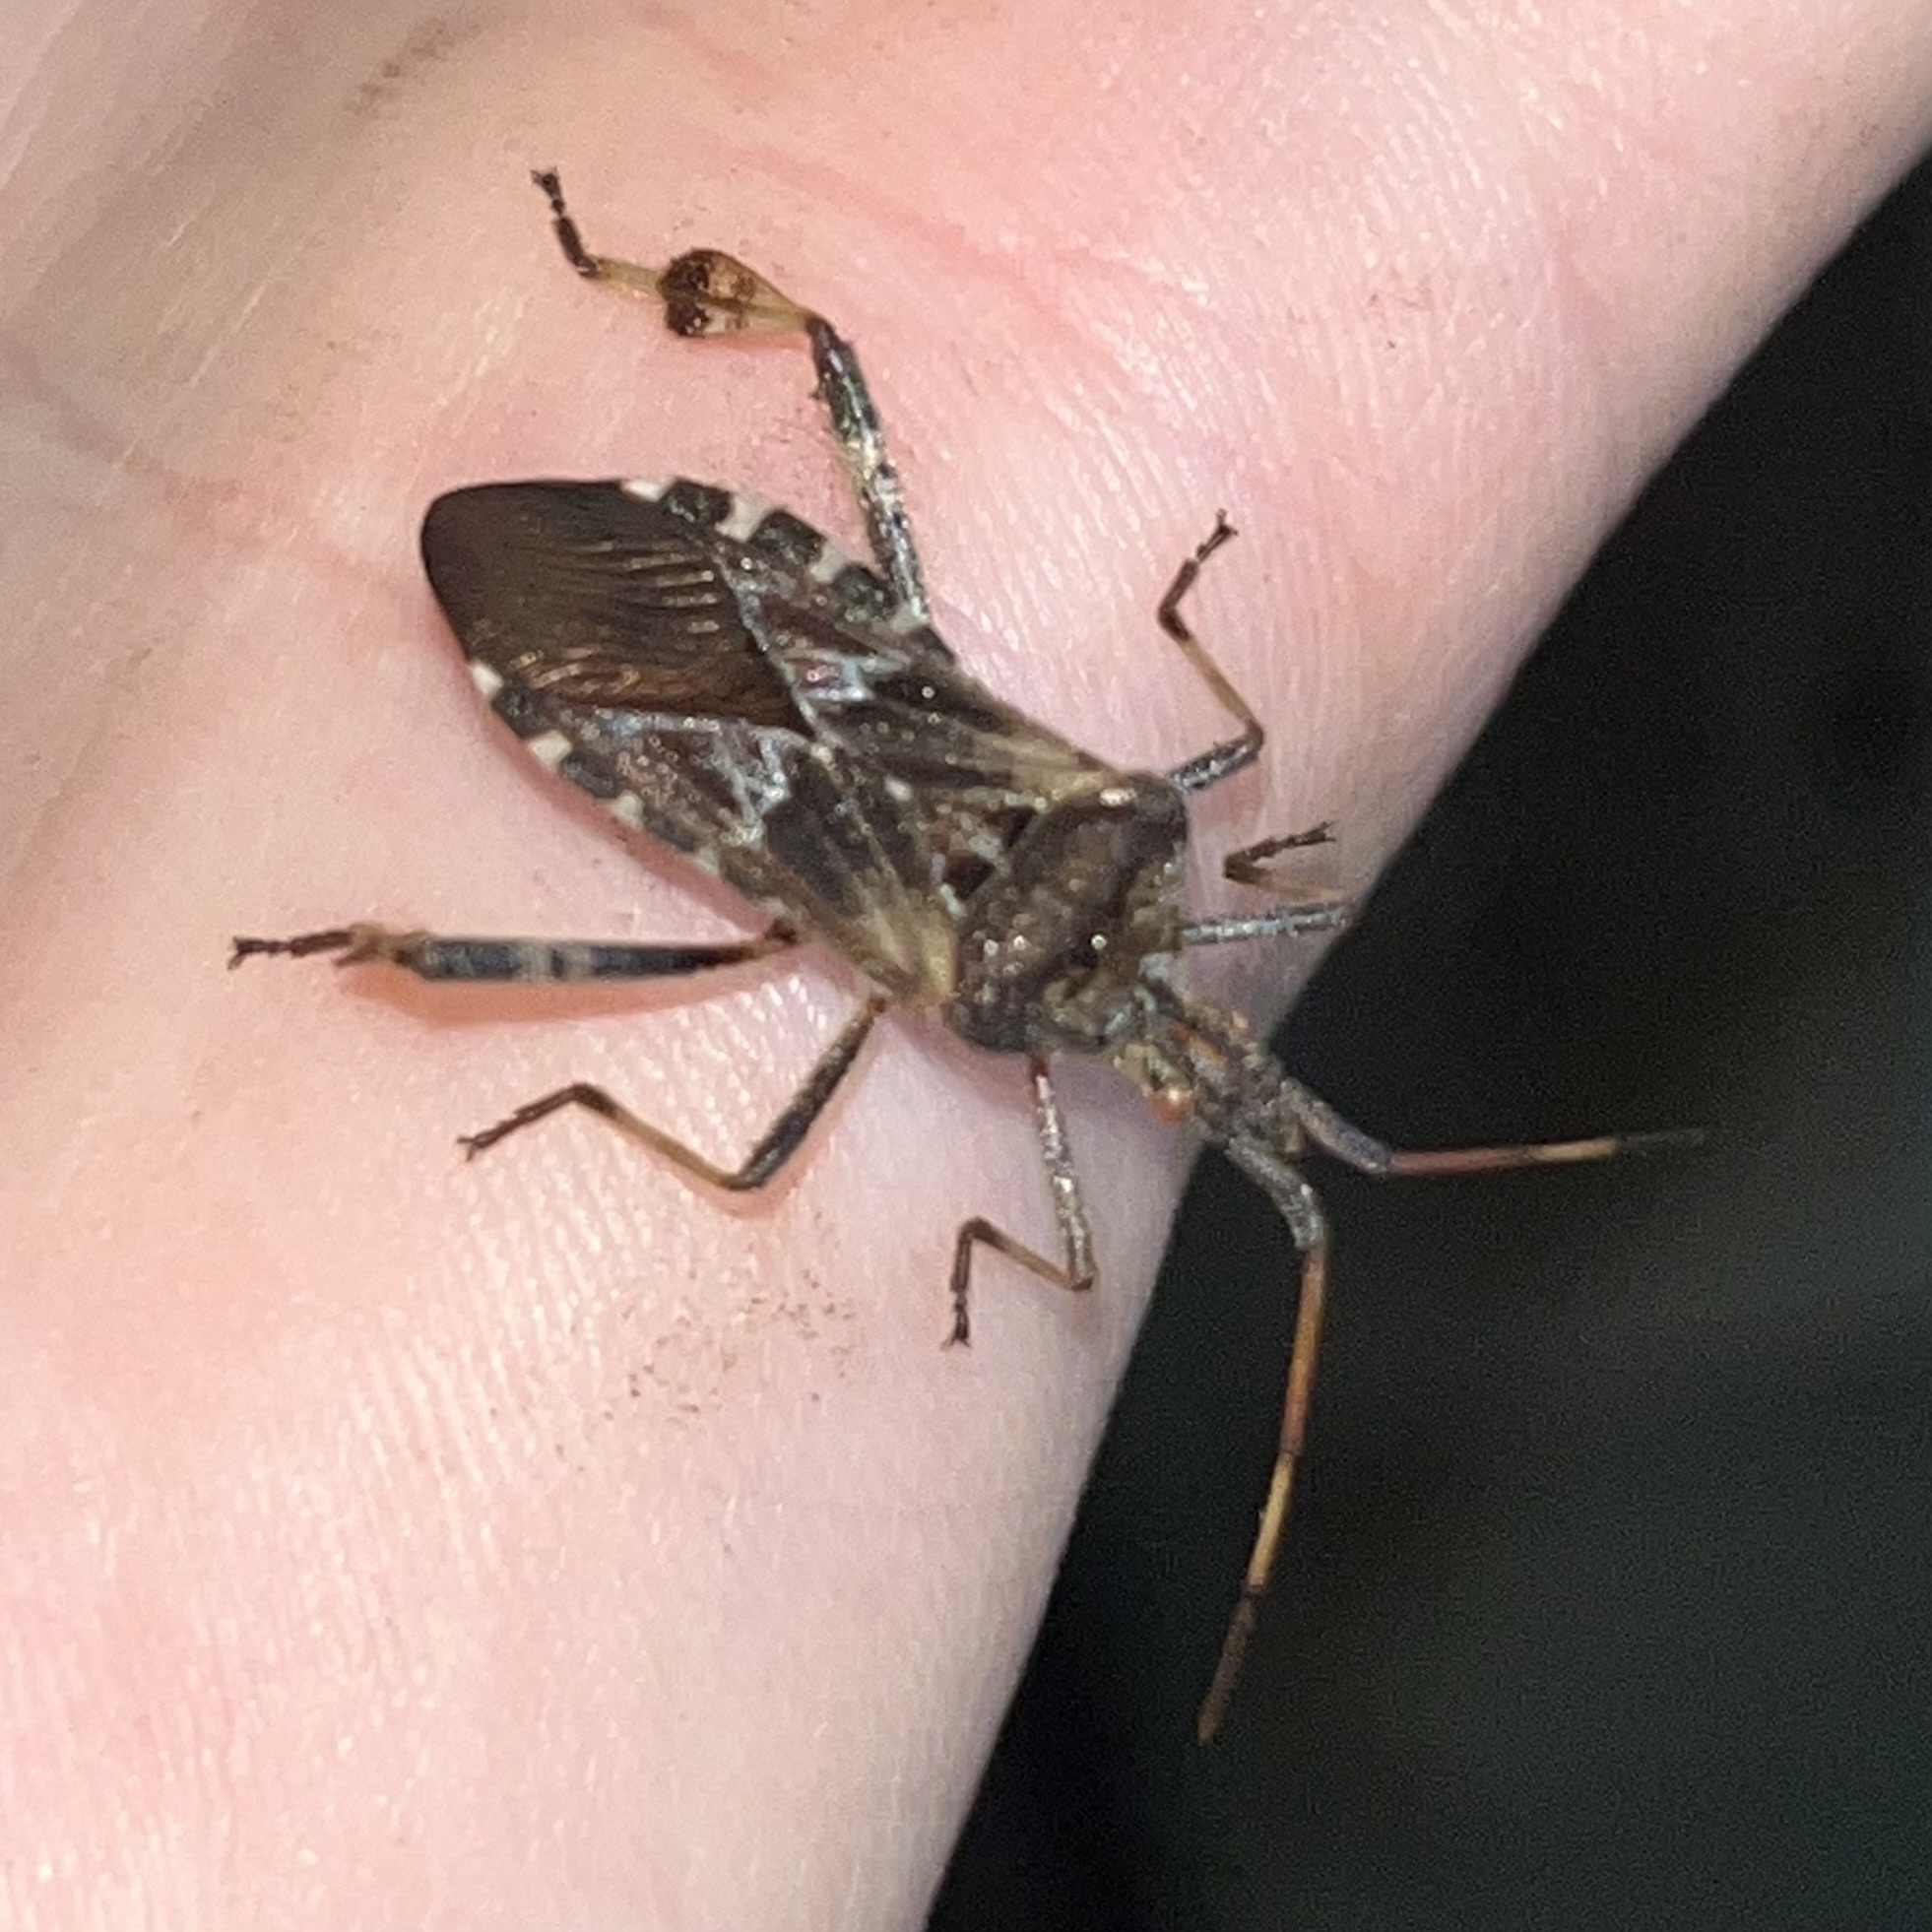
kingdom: Animalia
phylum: Arthropoda
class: Insecta
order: Hemiptera
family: Coreidae
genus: Leptoglossus
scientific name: Leptoglossus occidentalis
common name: Western conifer-seed bug
